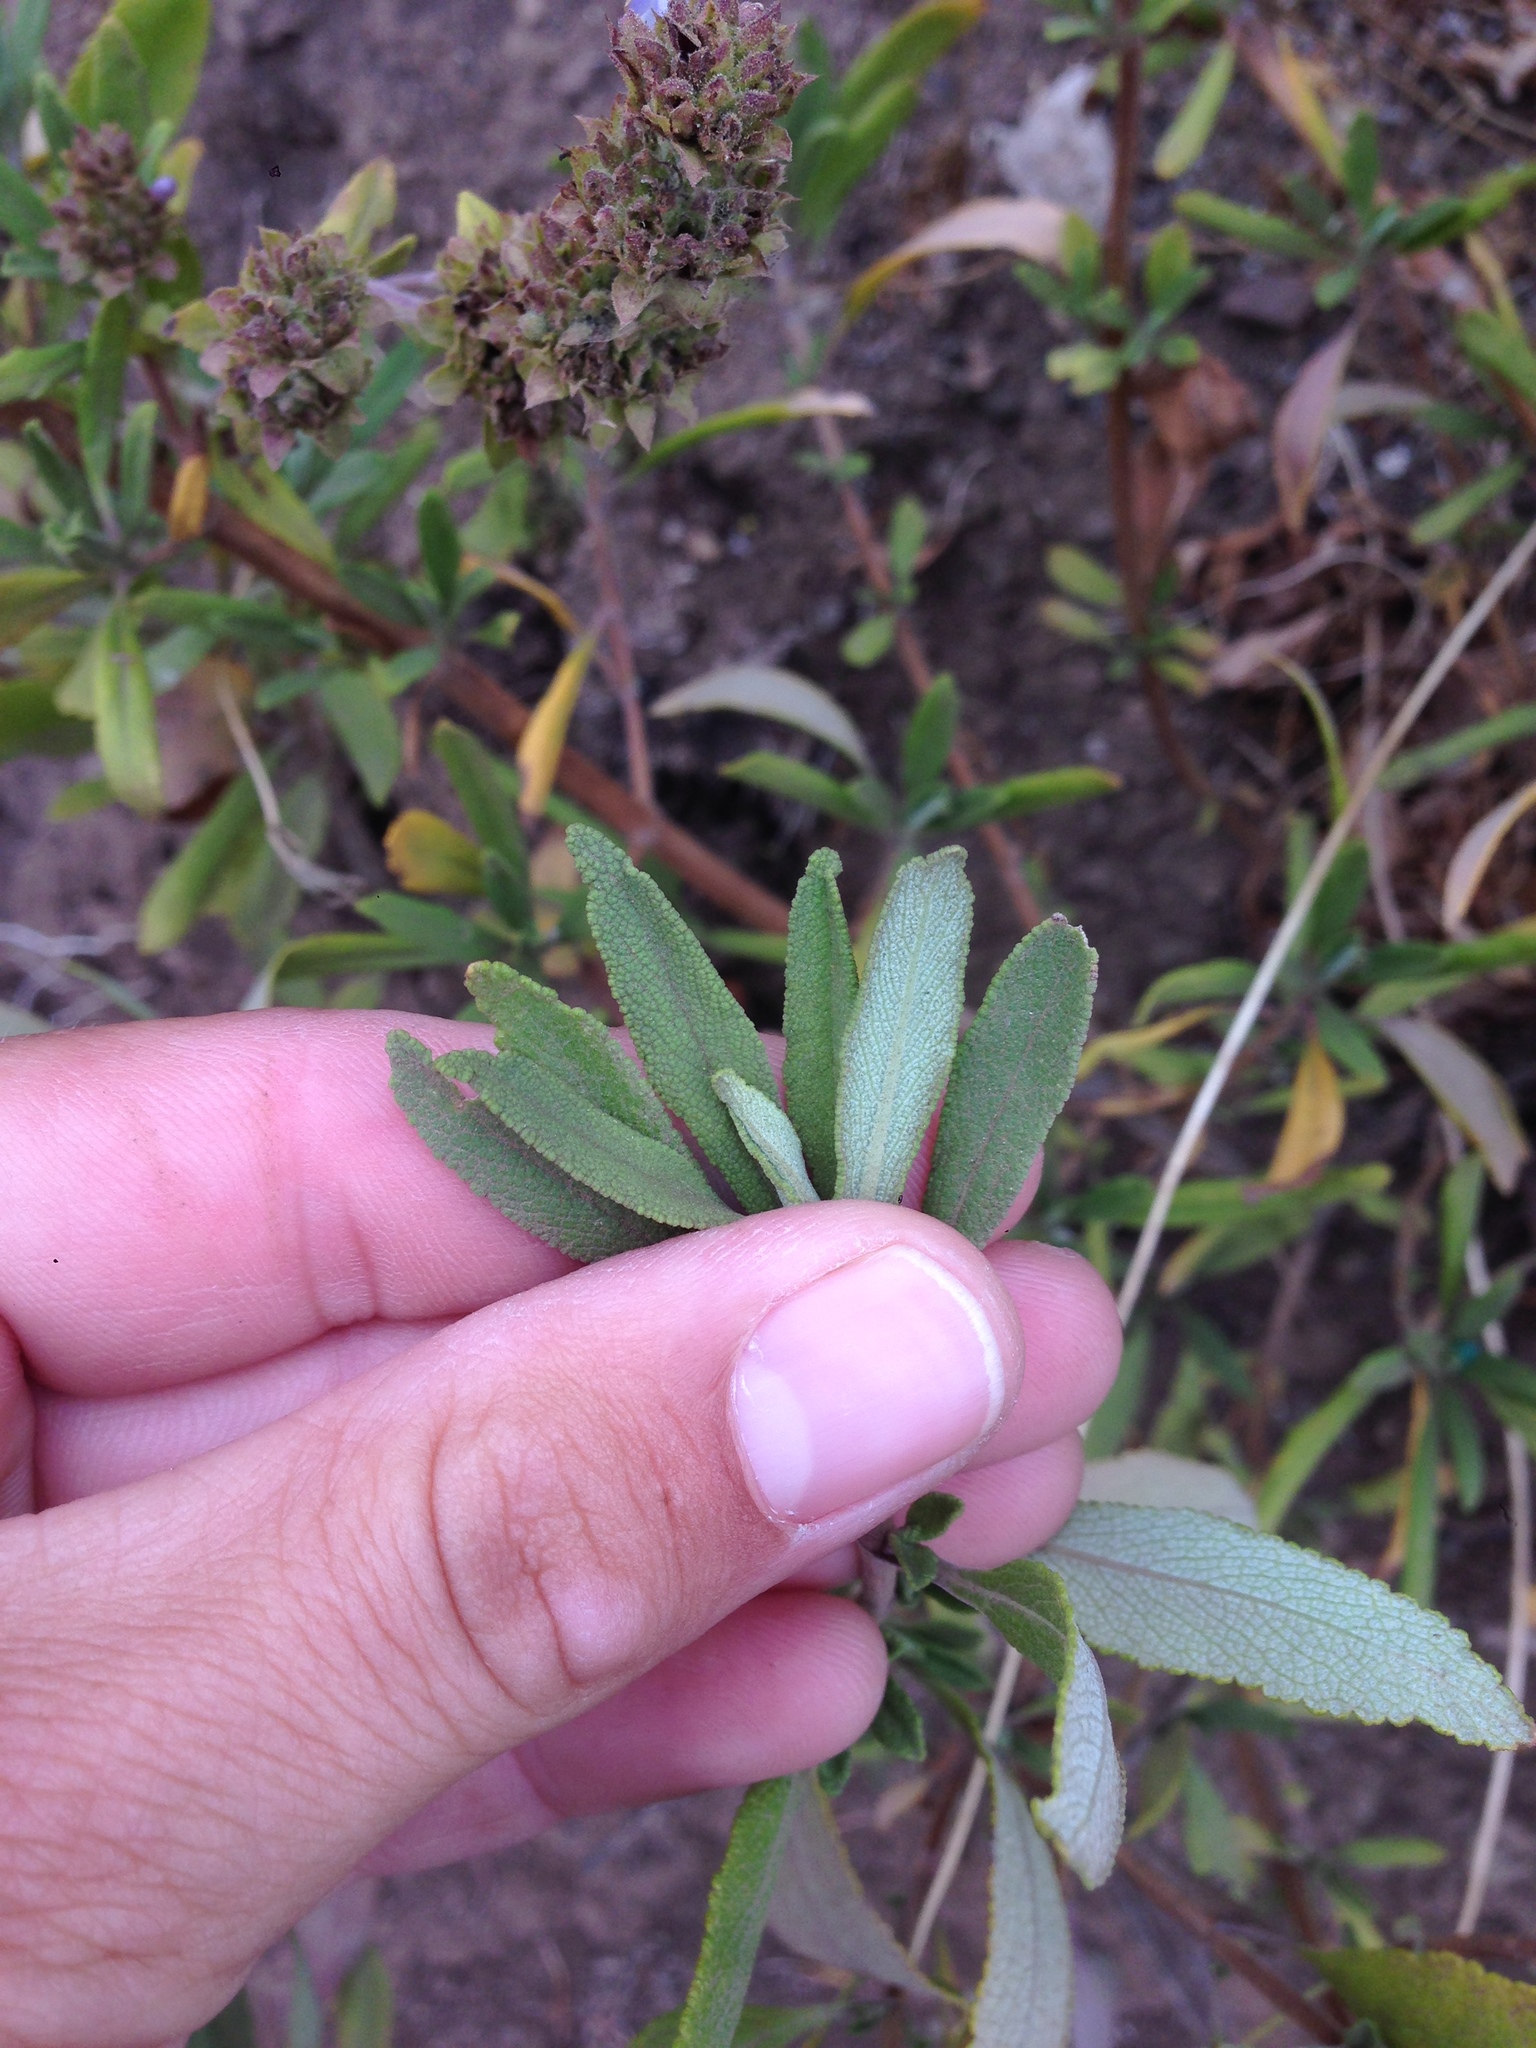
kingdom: Plantae
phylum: Tracheophyta
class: Magnoliopsida
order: Lamiales
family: Lamiaceae
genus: Salvia
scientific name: Salvia mellifera
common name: Black sage
